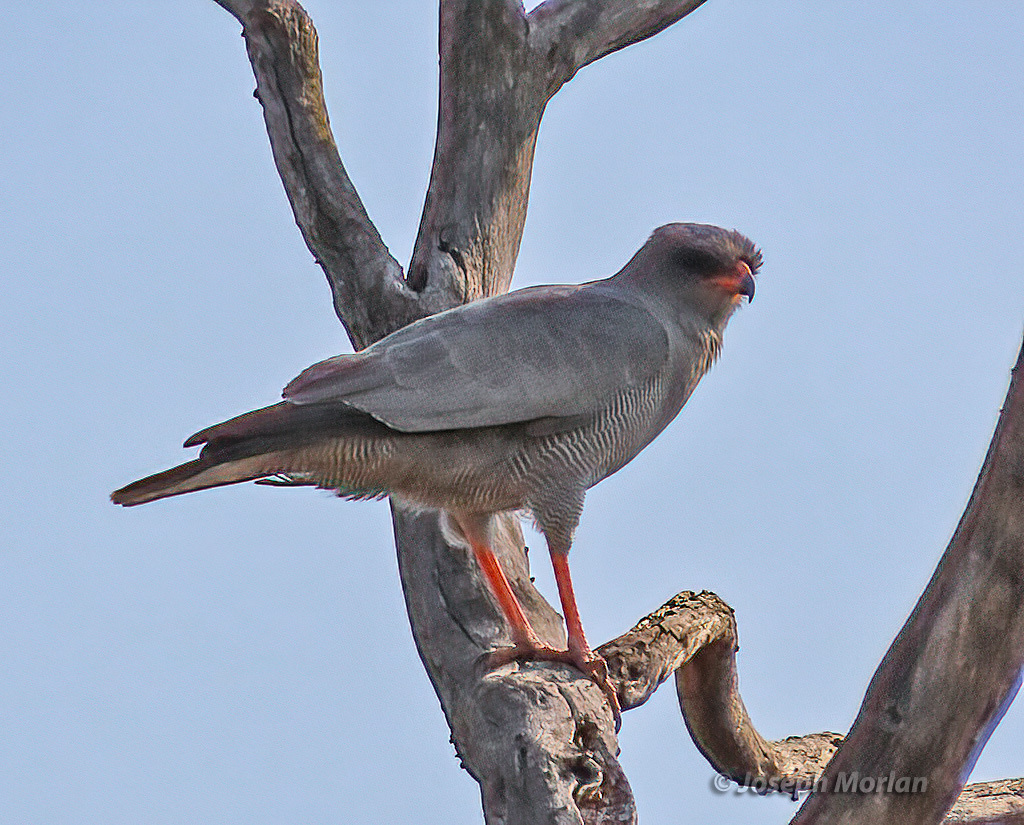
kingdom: Animalia
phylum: Chordata
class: Aves
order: Accipitriformes
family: Accipitridae
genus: Melierax
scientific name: Melierax metabates
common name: Dark chanting-goshawk
